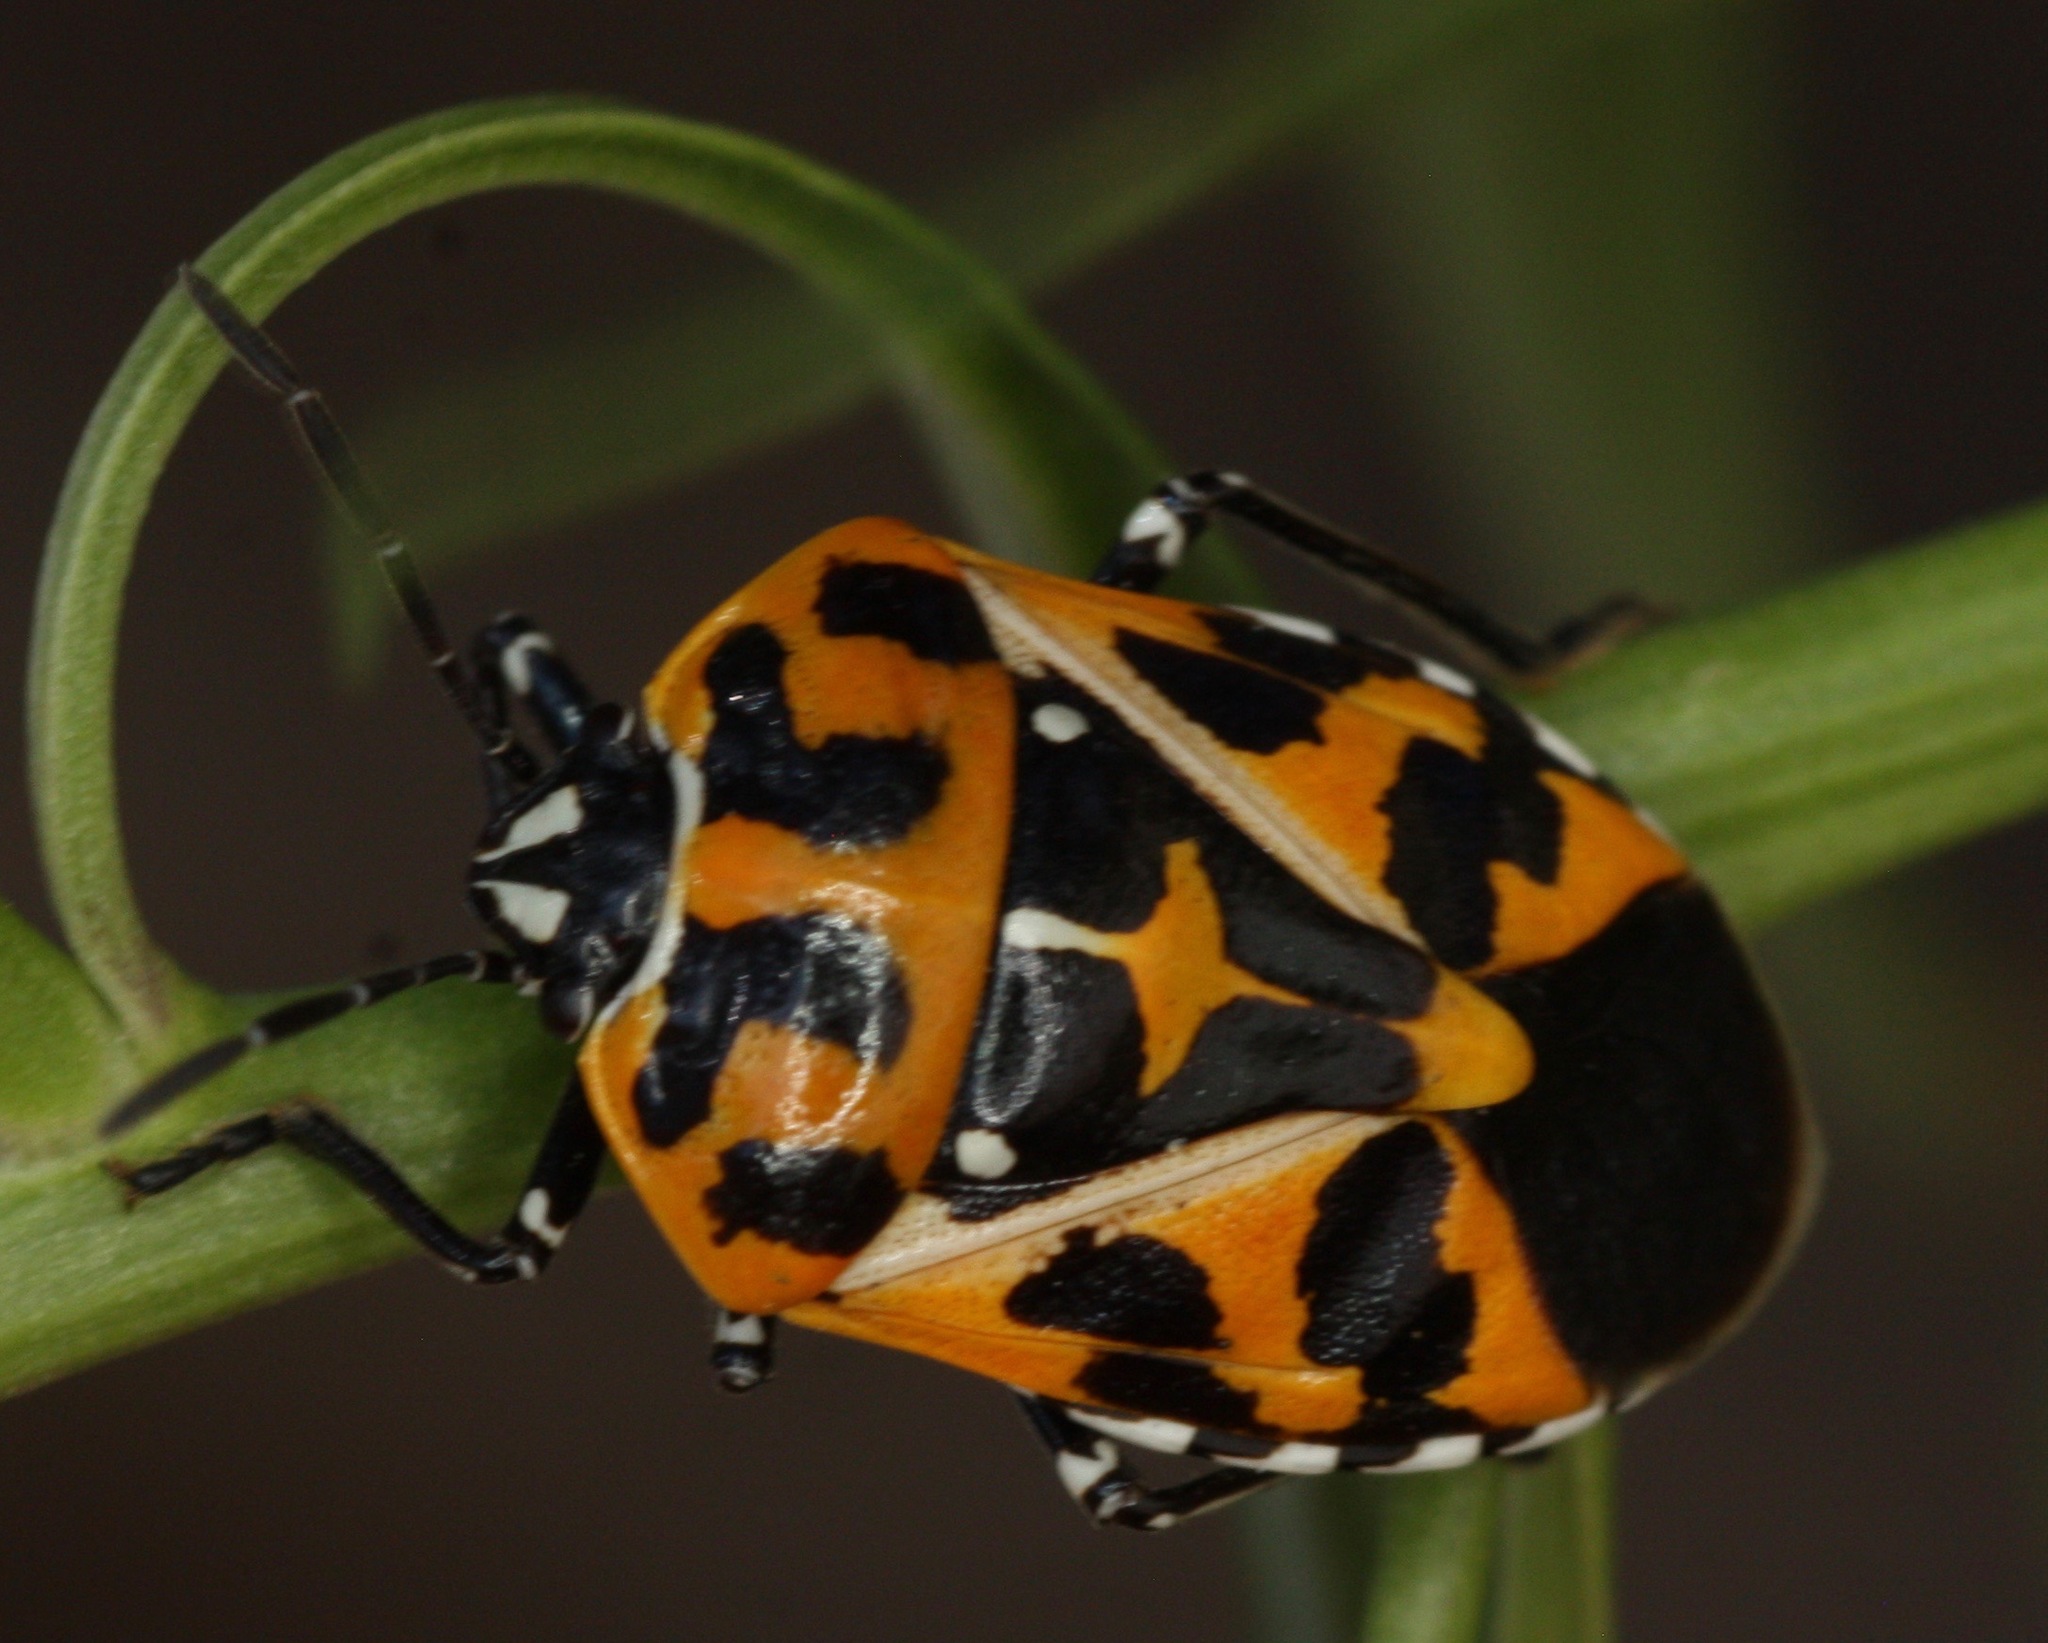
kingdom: Animalia
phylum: Arthropoda
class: Insecta
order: Hemiptera
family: Pentatomidae
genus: Murgantia
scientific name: Murgantia histrionica
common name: Harlequin bug
